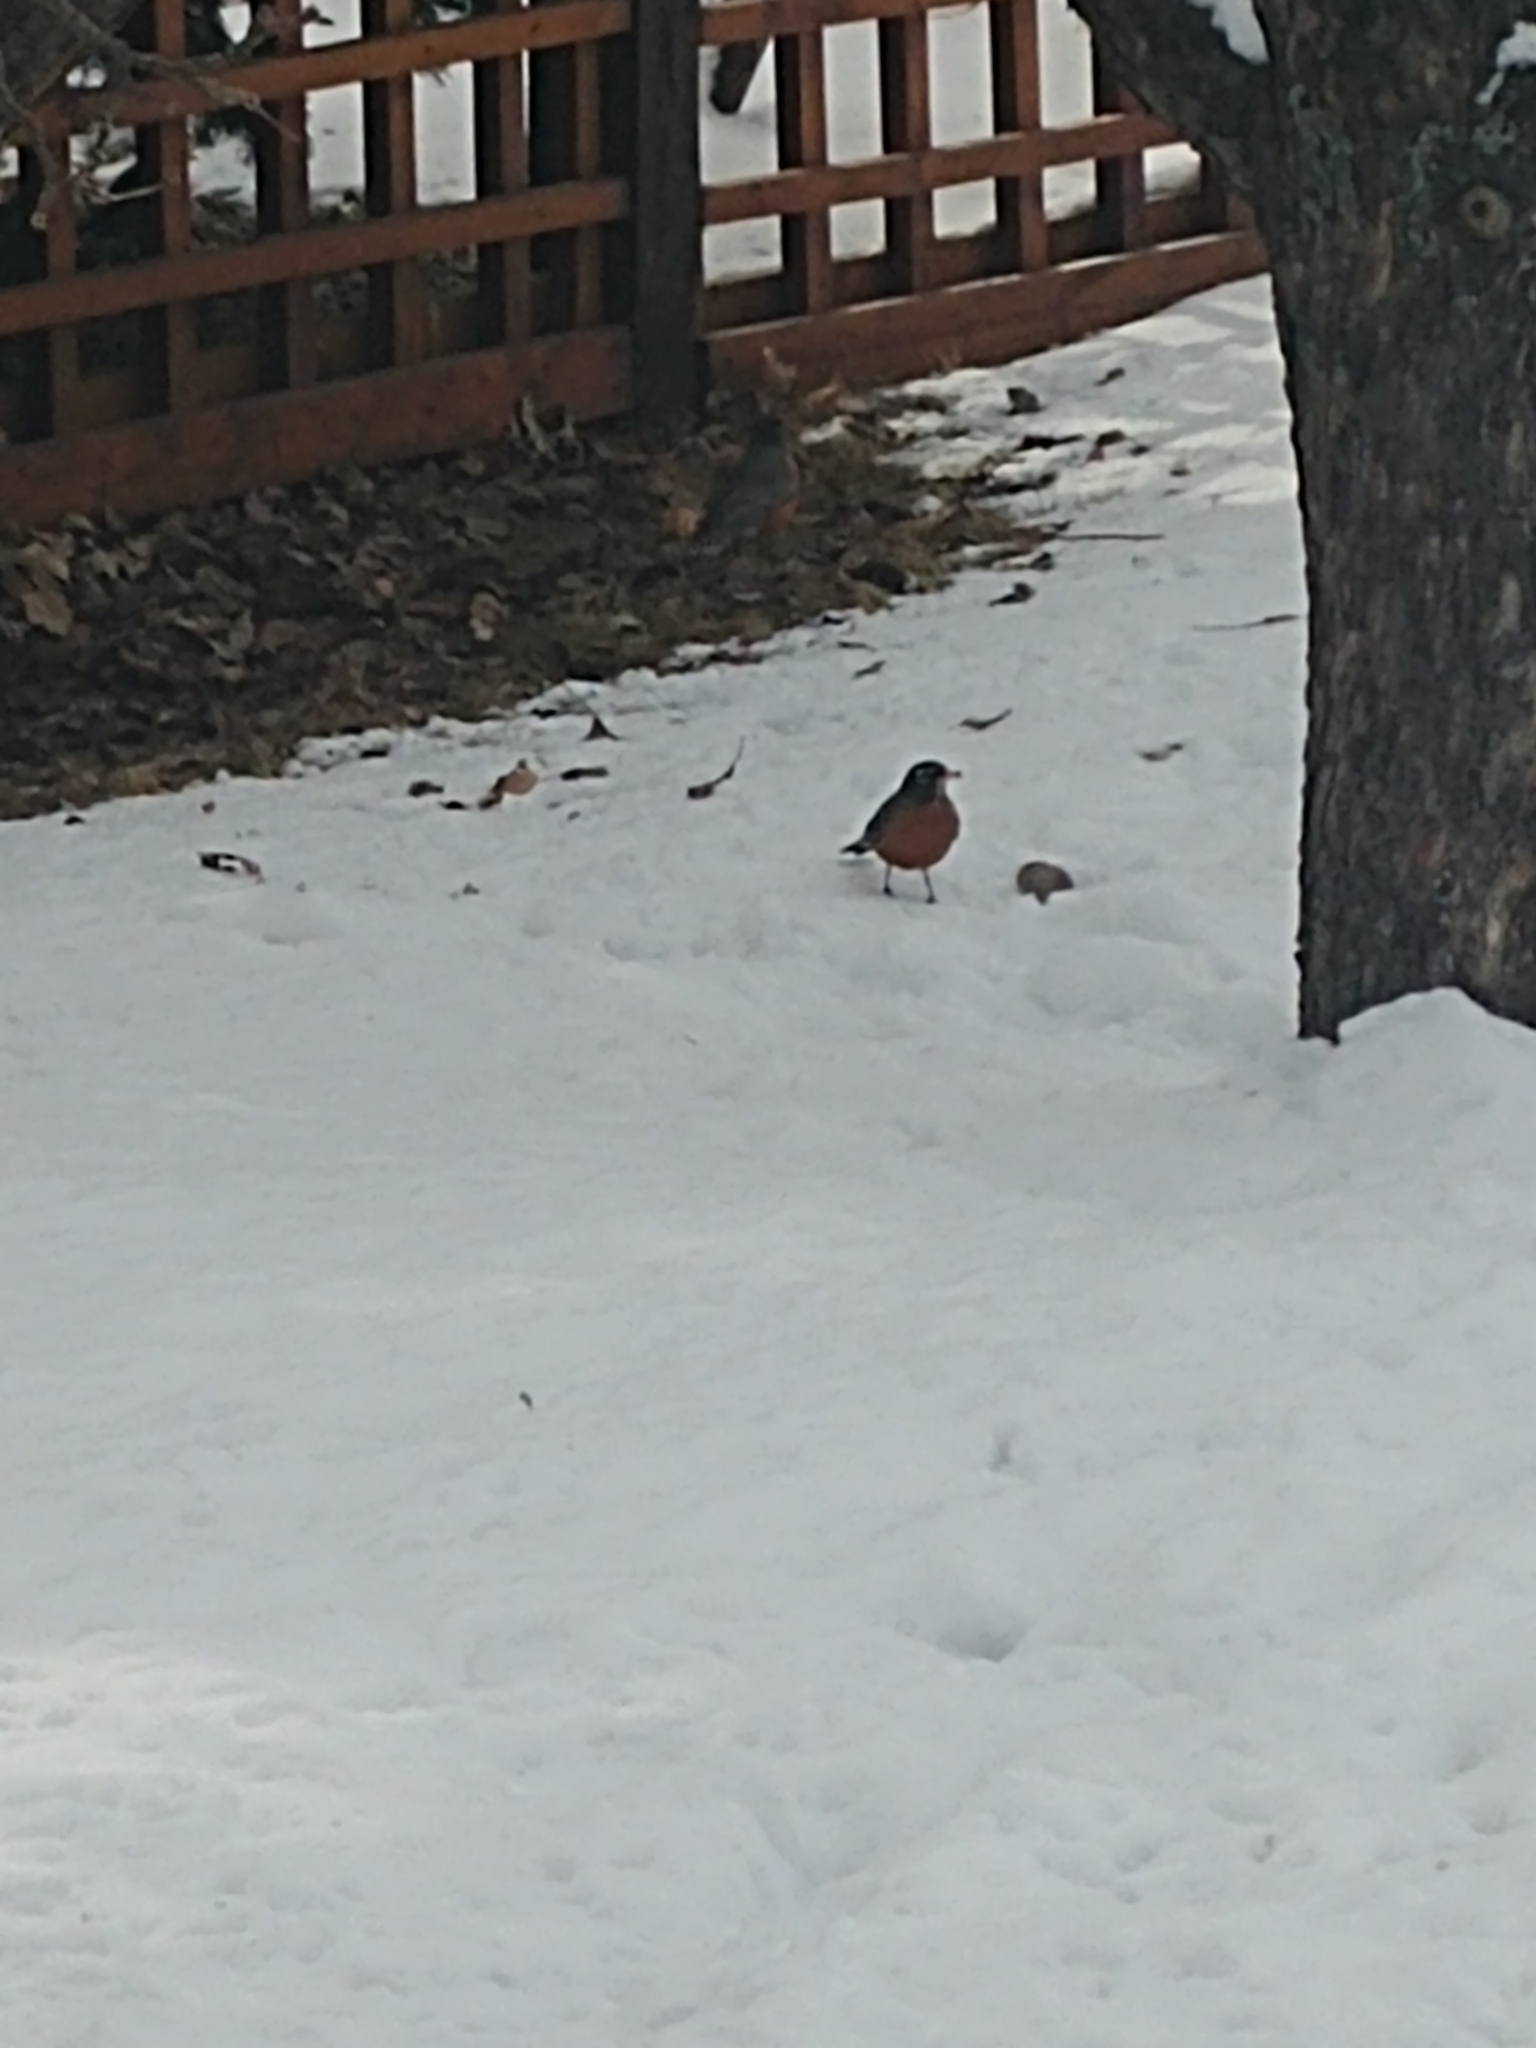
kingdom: Animalia
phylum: Chordata
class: Aves
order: Passeriformes
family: Turdidae
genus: Turdus
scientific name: Turdus migratorius
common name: American robin
